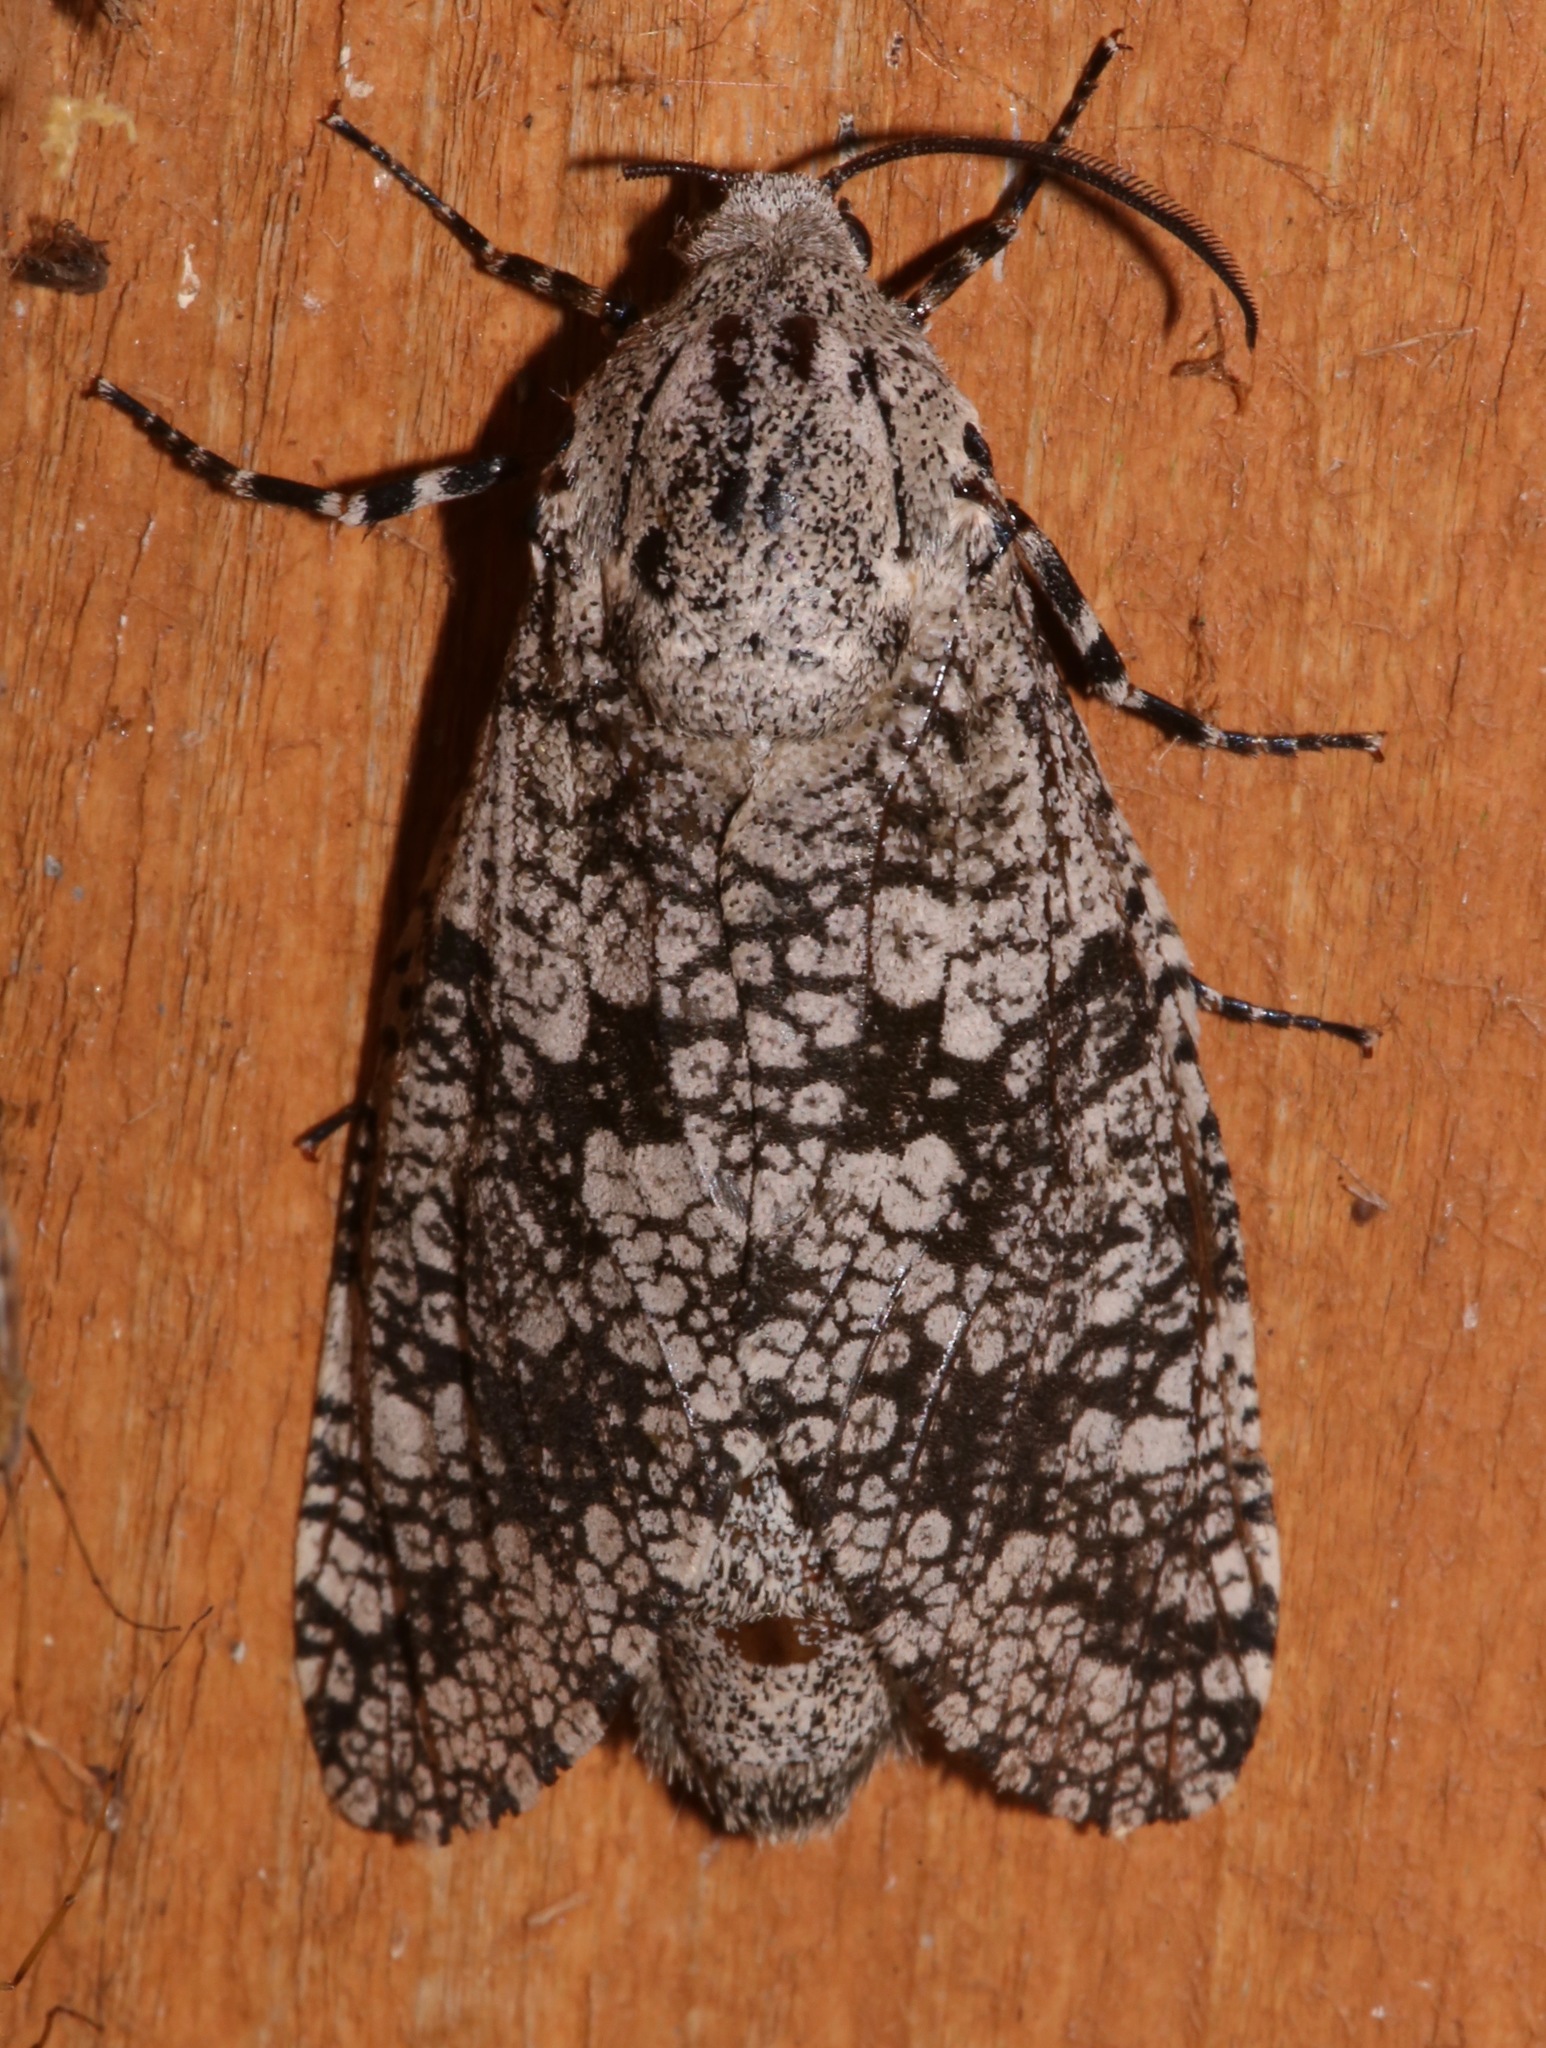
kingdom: Animalia
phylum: Arthropoda
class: Insecta
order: Lepidoptera
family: Cossidae
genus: Prionoxystus
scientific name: Prionoxystus robiniae
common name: Carpenterworm
